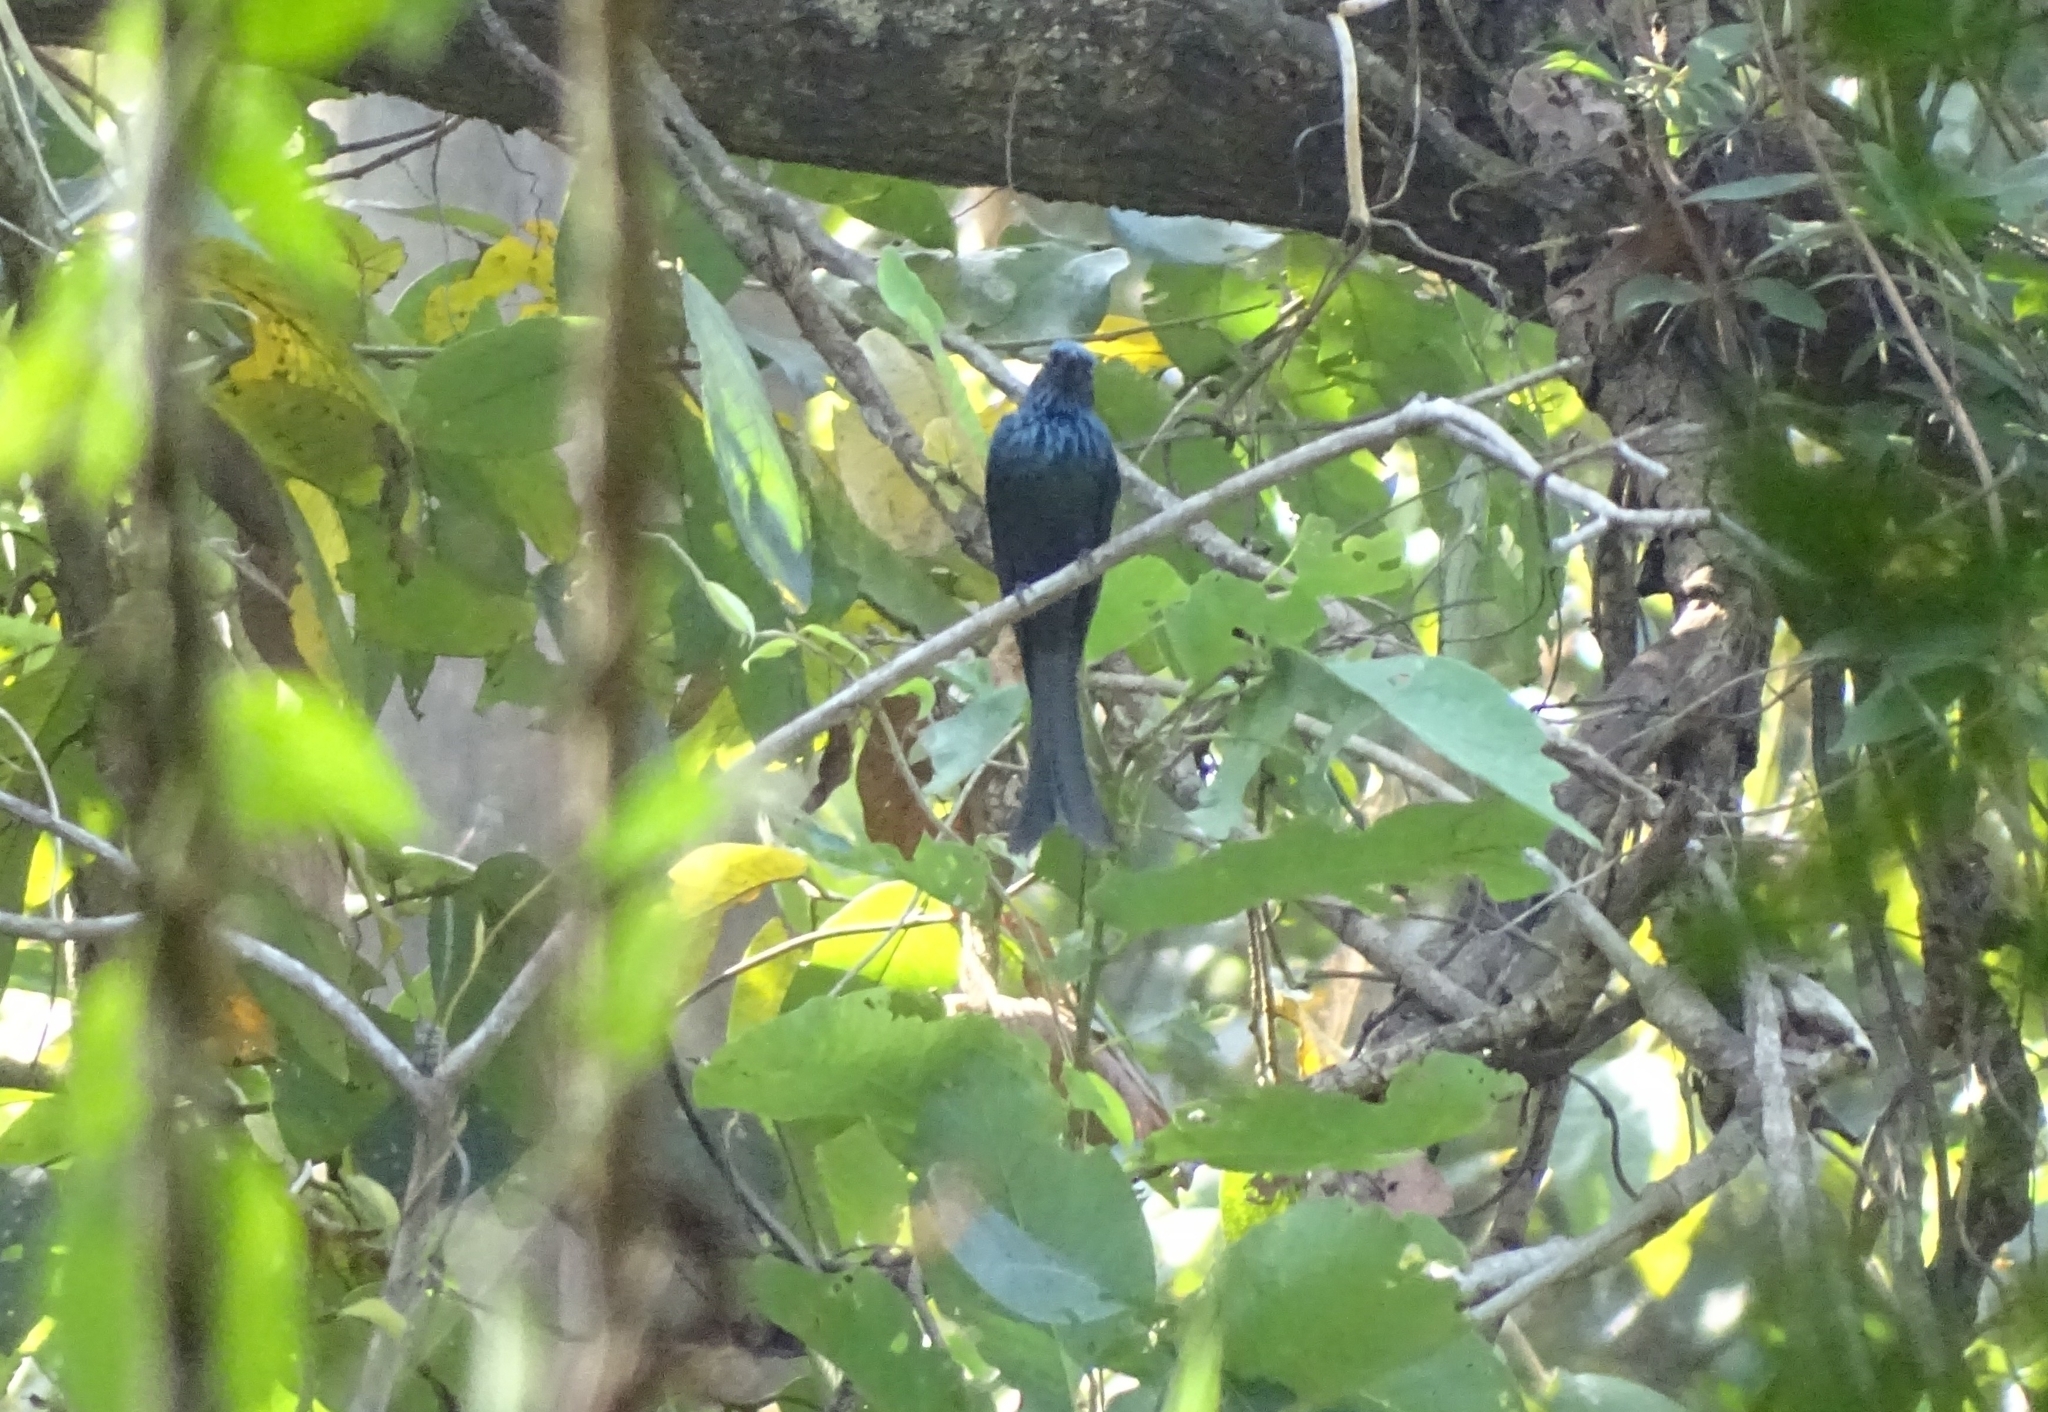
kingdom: Animalia
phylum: Chordata
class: Aves
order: Passeriformes
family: Dicruridae
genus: Dicrurus
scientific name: Dicrurus aeneus
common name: Bronzed drongo
